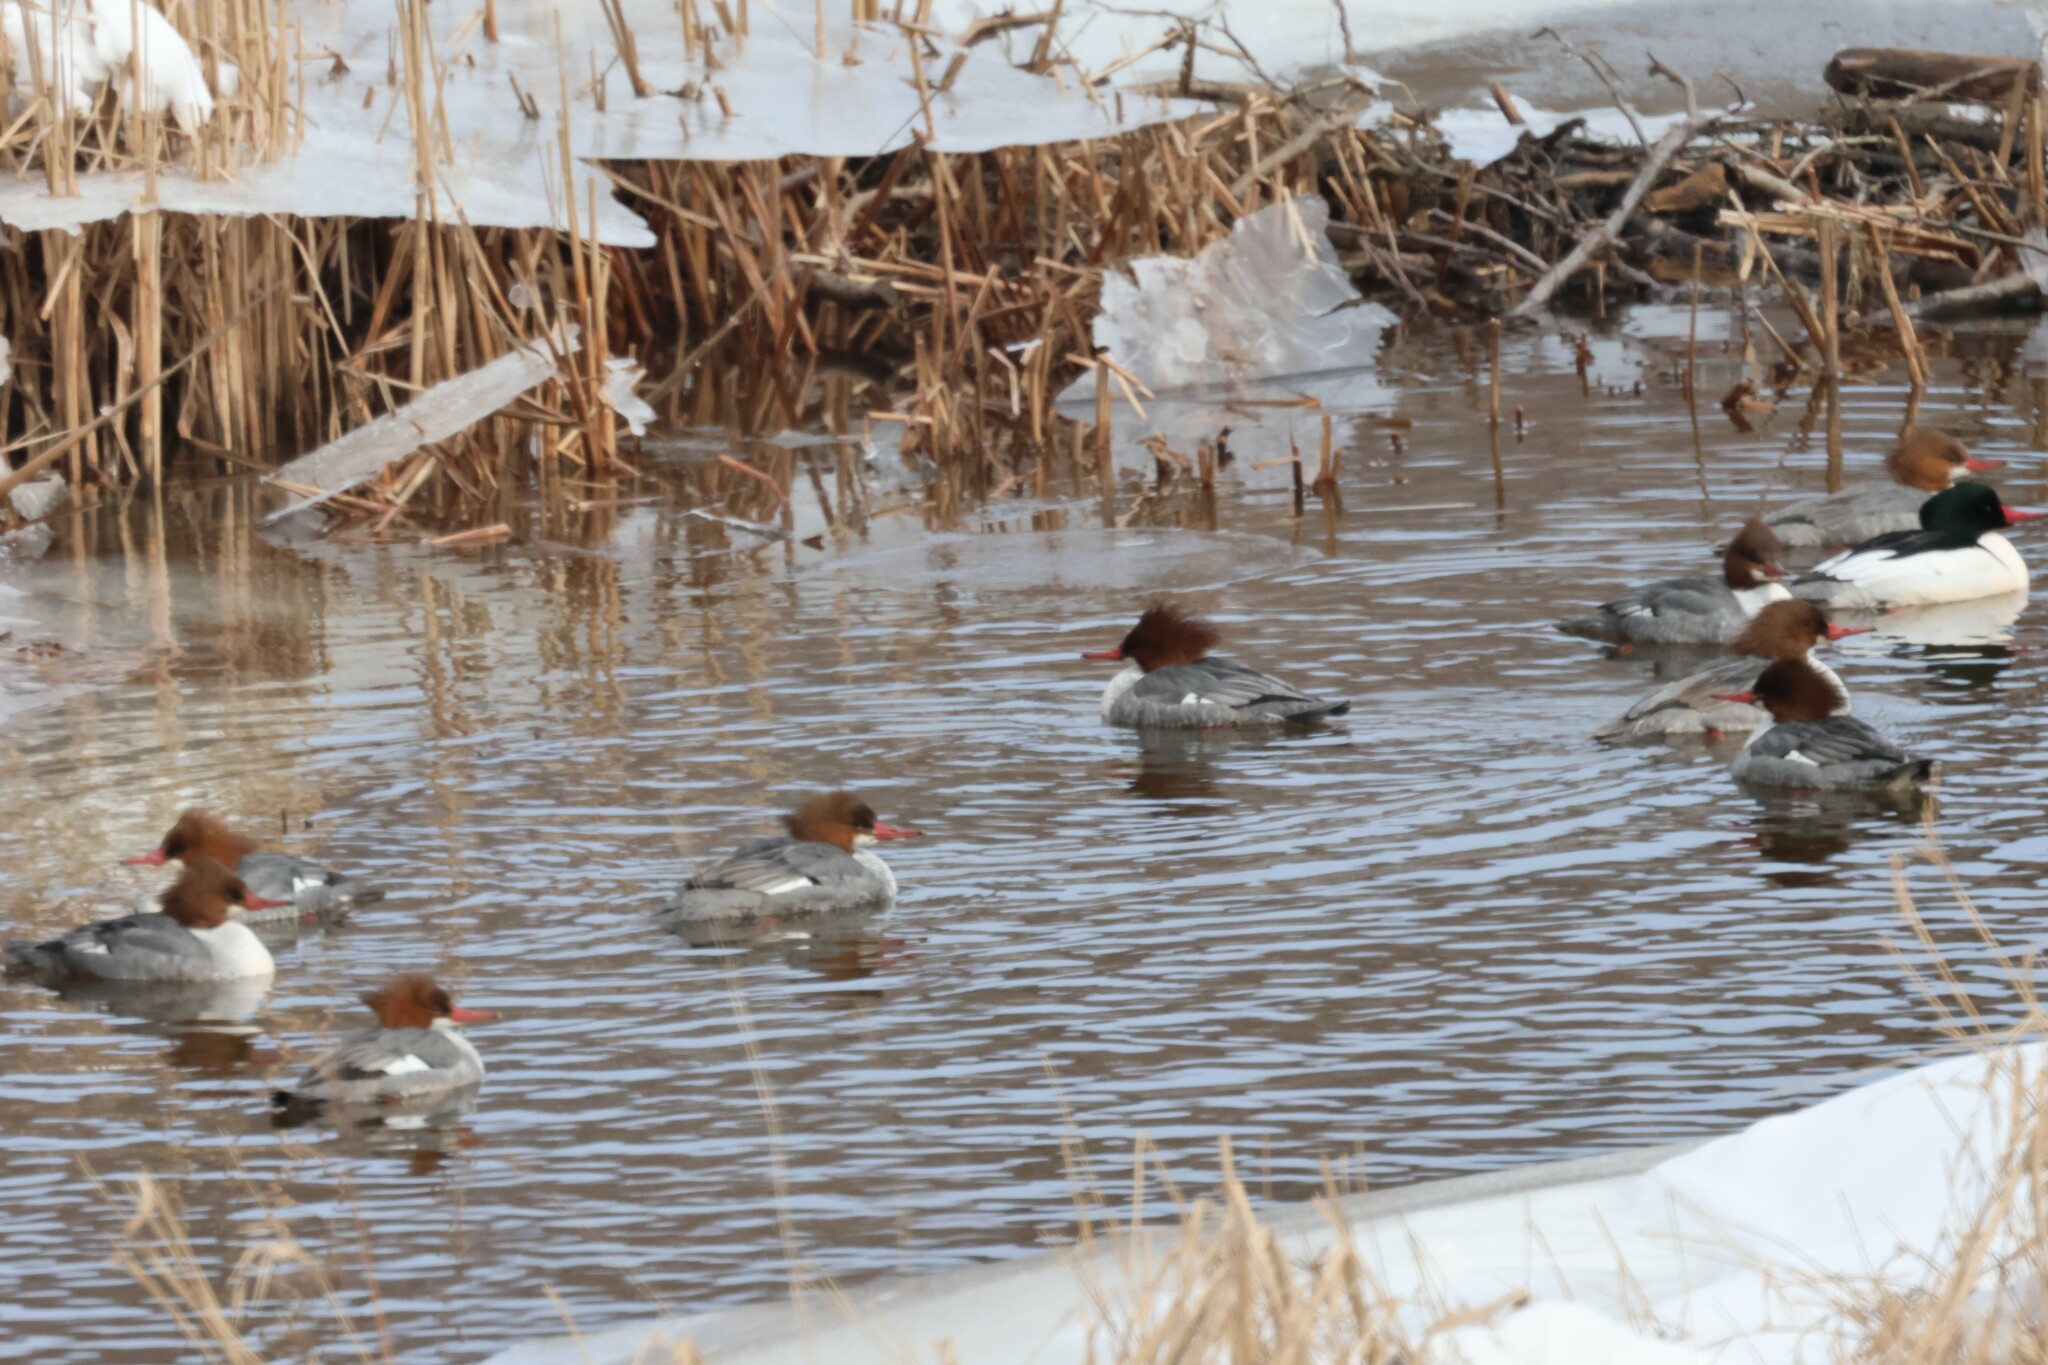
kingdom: Animalia
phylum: Chordata
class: Aves
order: Anseriformes
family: Anatidae
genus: Mergus
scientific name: Mergus merganser
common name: Common merganser
